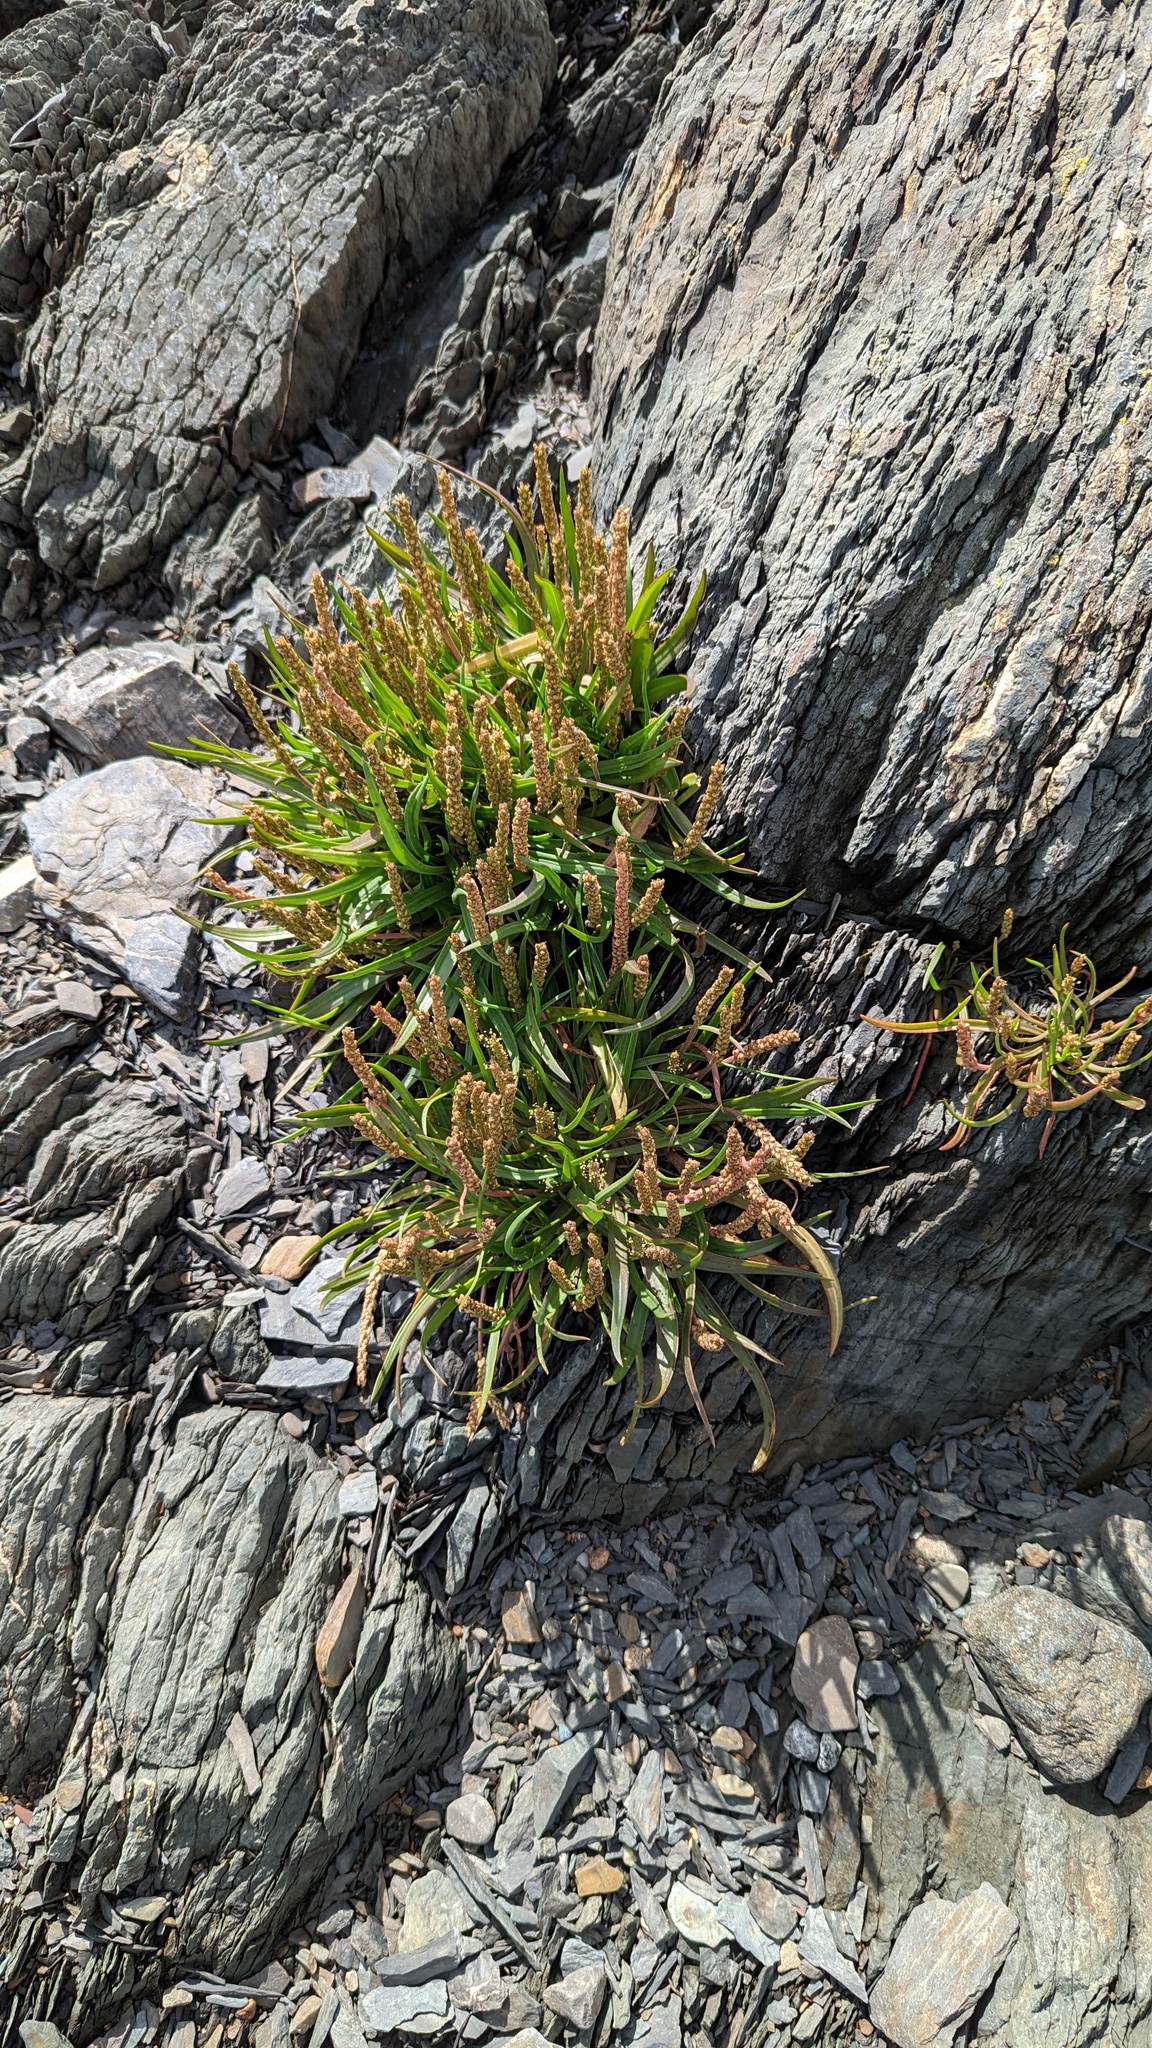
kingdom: Plantae
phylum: Tracheophyta
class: Magnoliopsida
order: Lamiales
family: Plantaginaceae
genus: Plantago
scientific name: Plantago maritima
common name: Sea plantain
